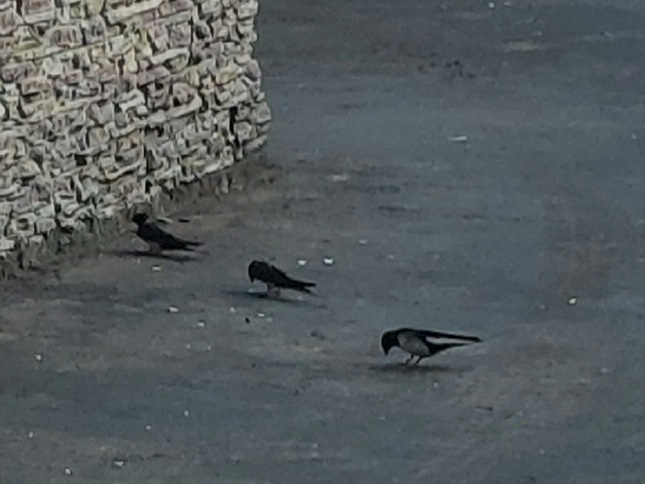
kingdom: Animalia
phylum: Chordata
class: Aves
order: Passeriformes
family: Hirundinidae
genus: Hirundo
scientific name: Hirundo rustica
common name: Barn swallow
